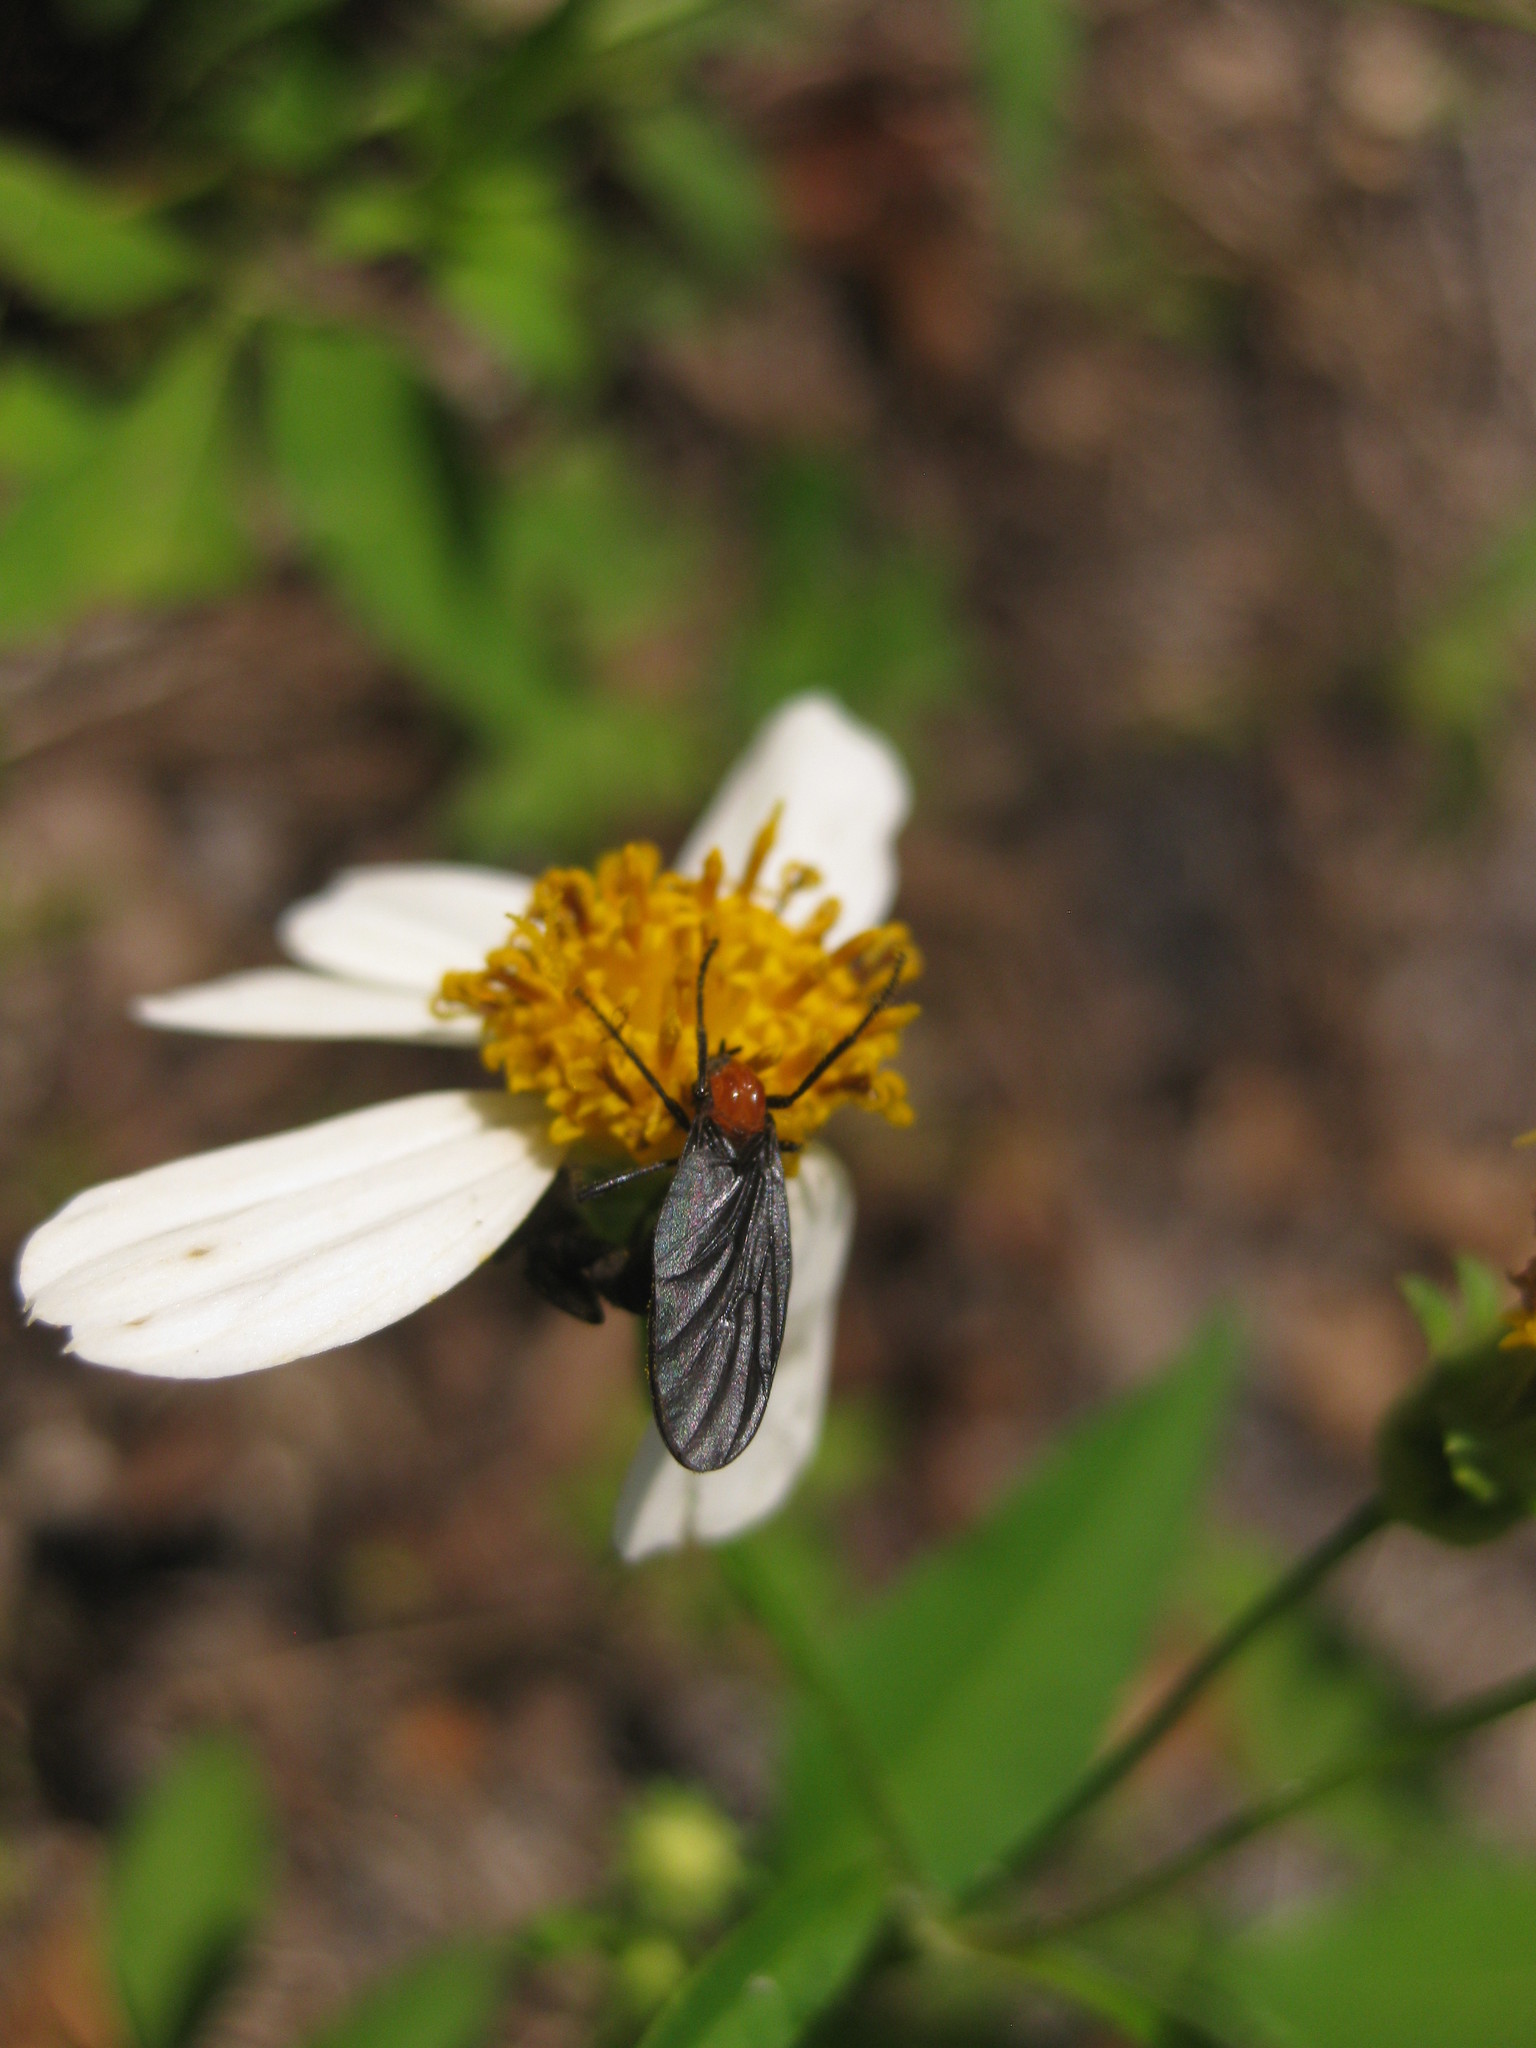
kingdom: Animalia
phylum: Arthropoda
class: Insecta
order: Diptera
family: Bibionidae
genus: Plecia
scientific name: Plecia nearctica
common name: March fly
